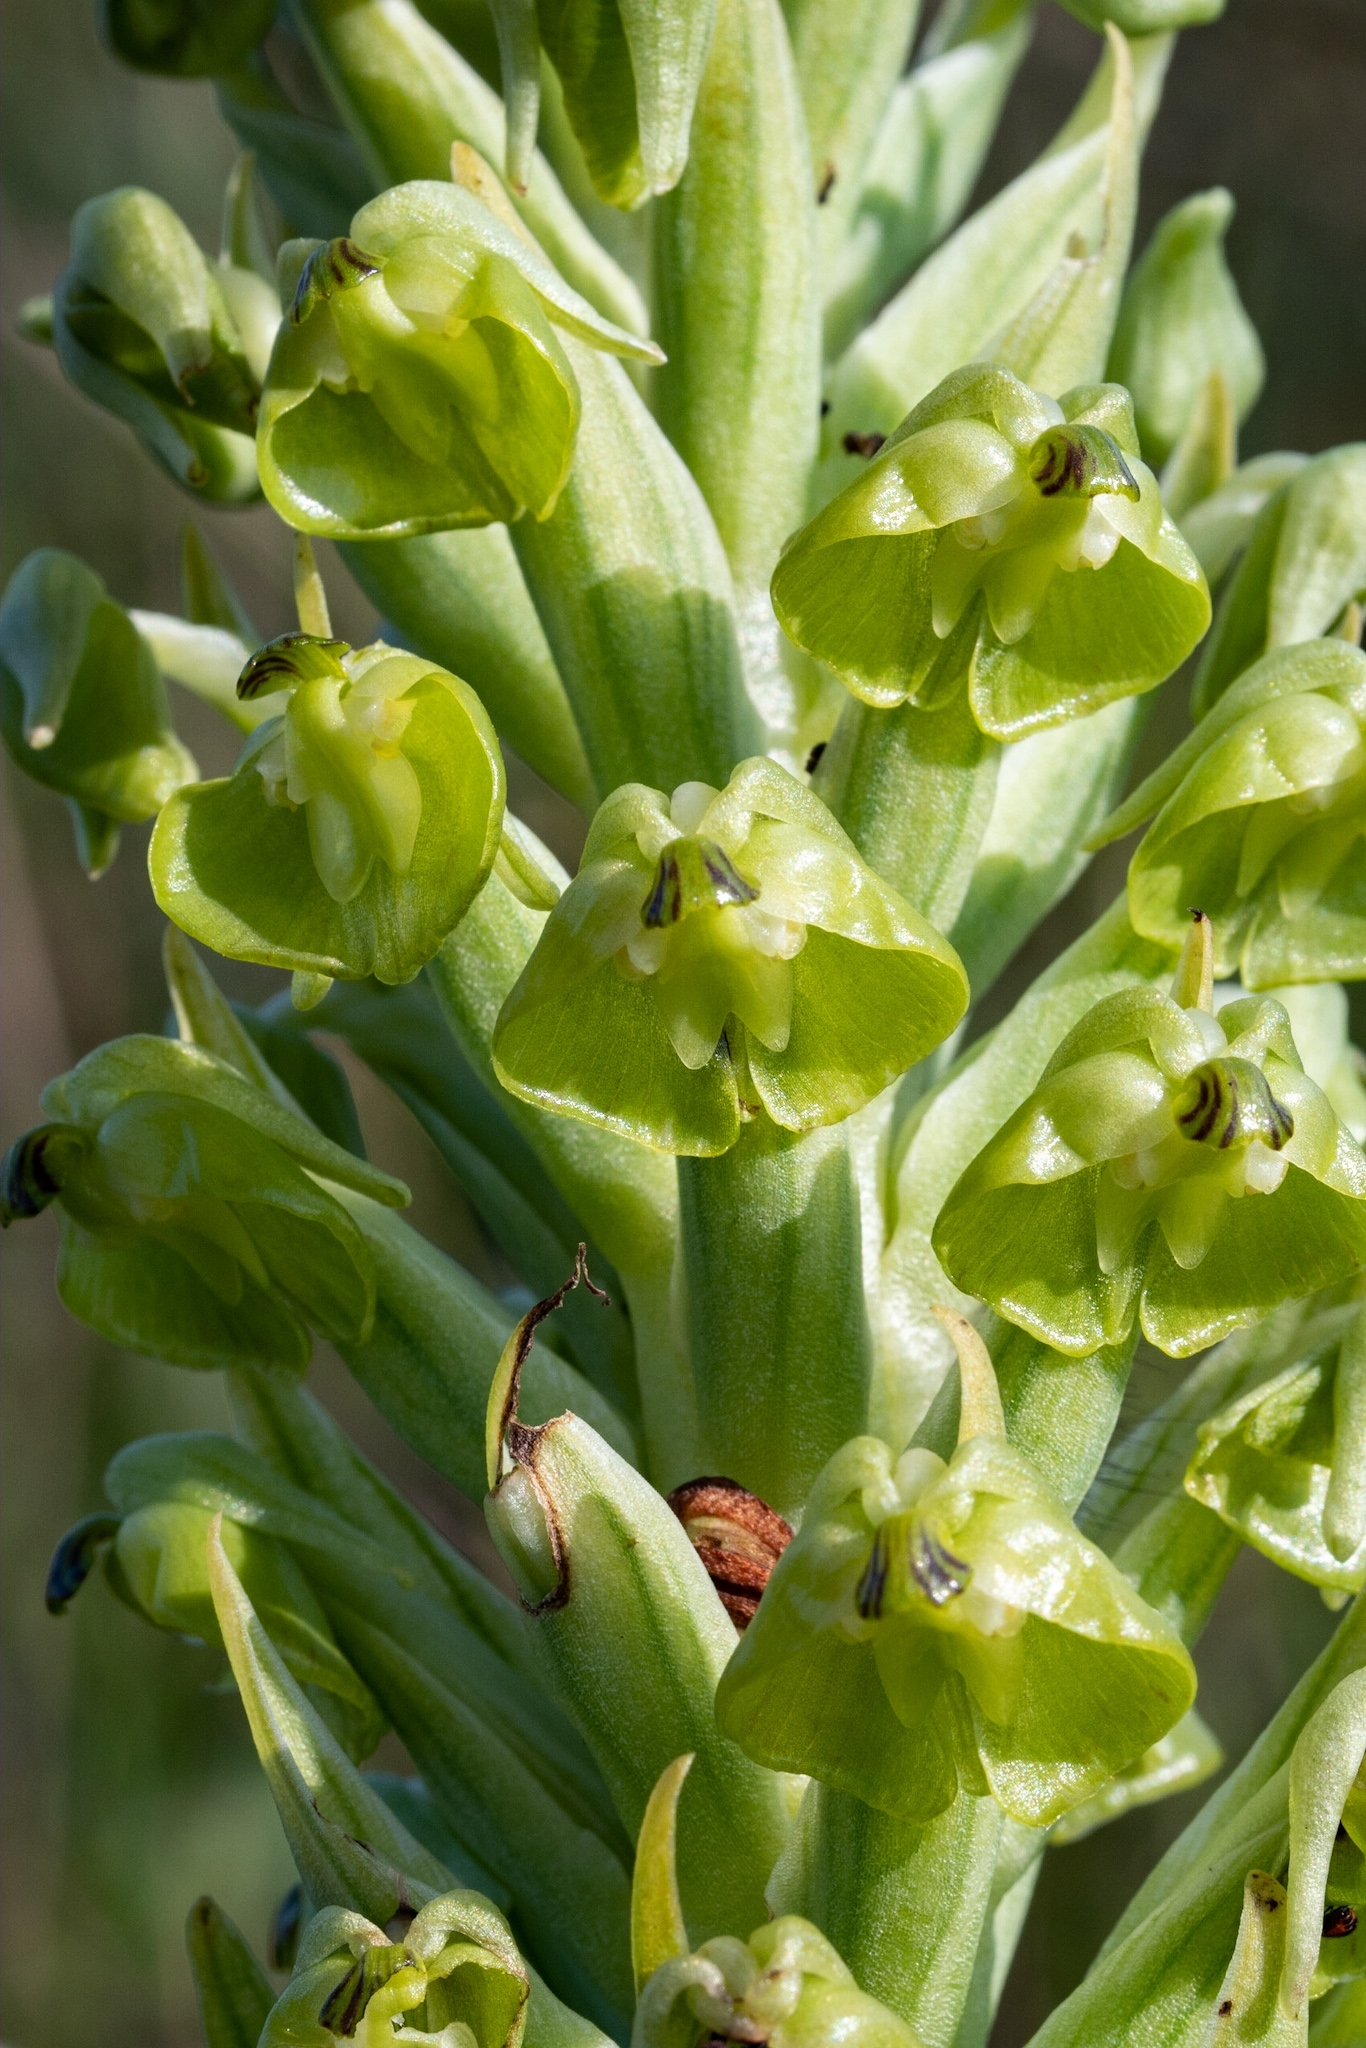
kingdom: Plantae
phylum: Tracheophyta
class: Liliopsida
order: Asparagales
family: Orchidaceae
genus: Pterygodium
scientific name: Pterygodium inversum
